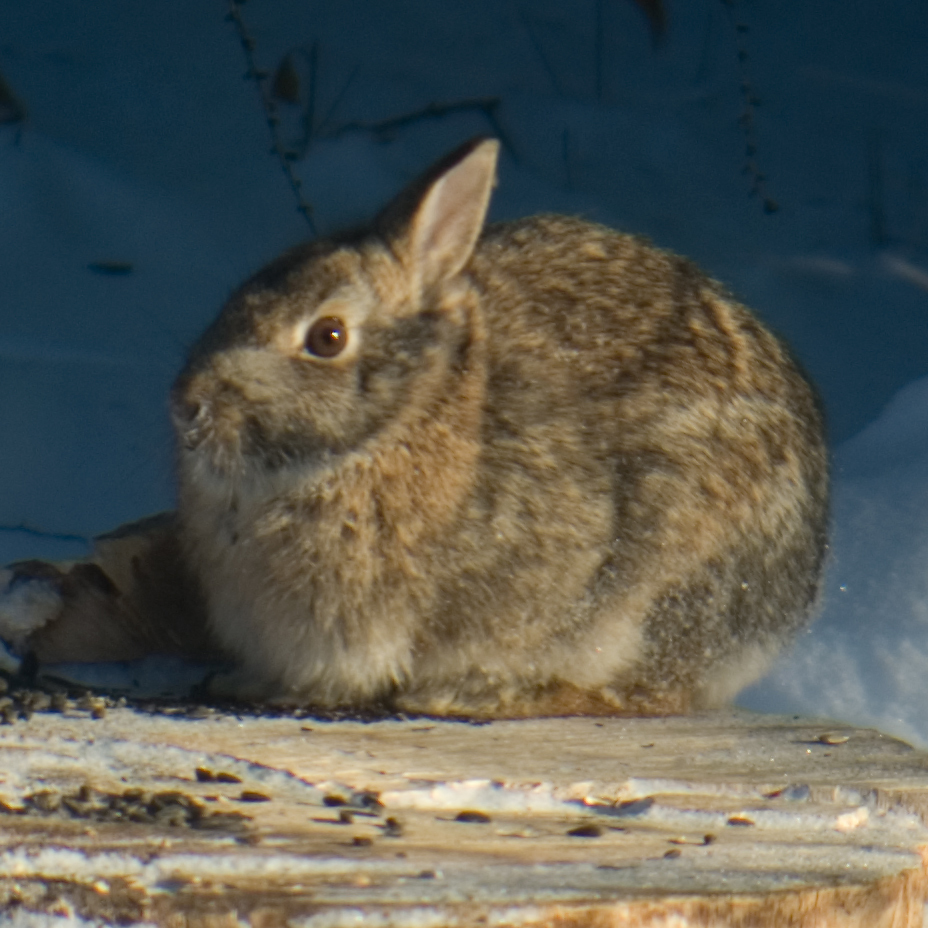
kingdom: Animalia
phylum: Chordata
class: Mammalia
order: Lagomorpha
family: Leporidae
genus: Sylvilagus
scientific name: Sylvilagus floridanus
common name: Eastern cottontail
